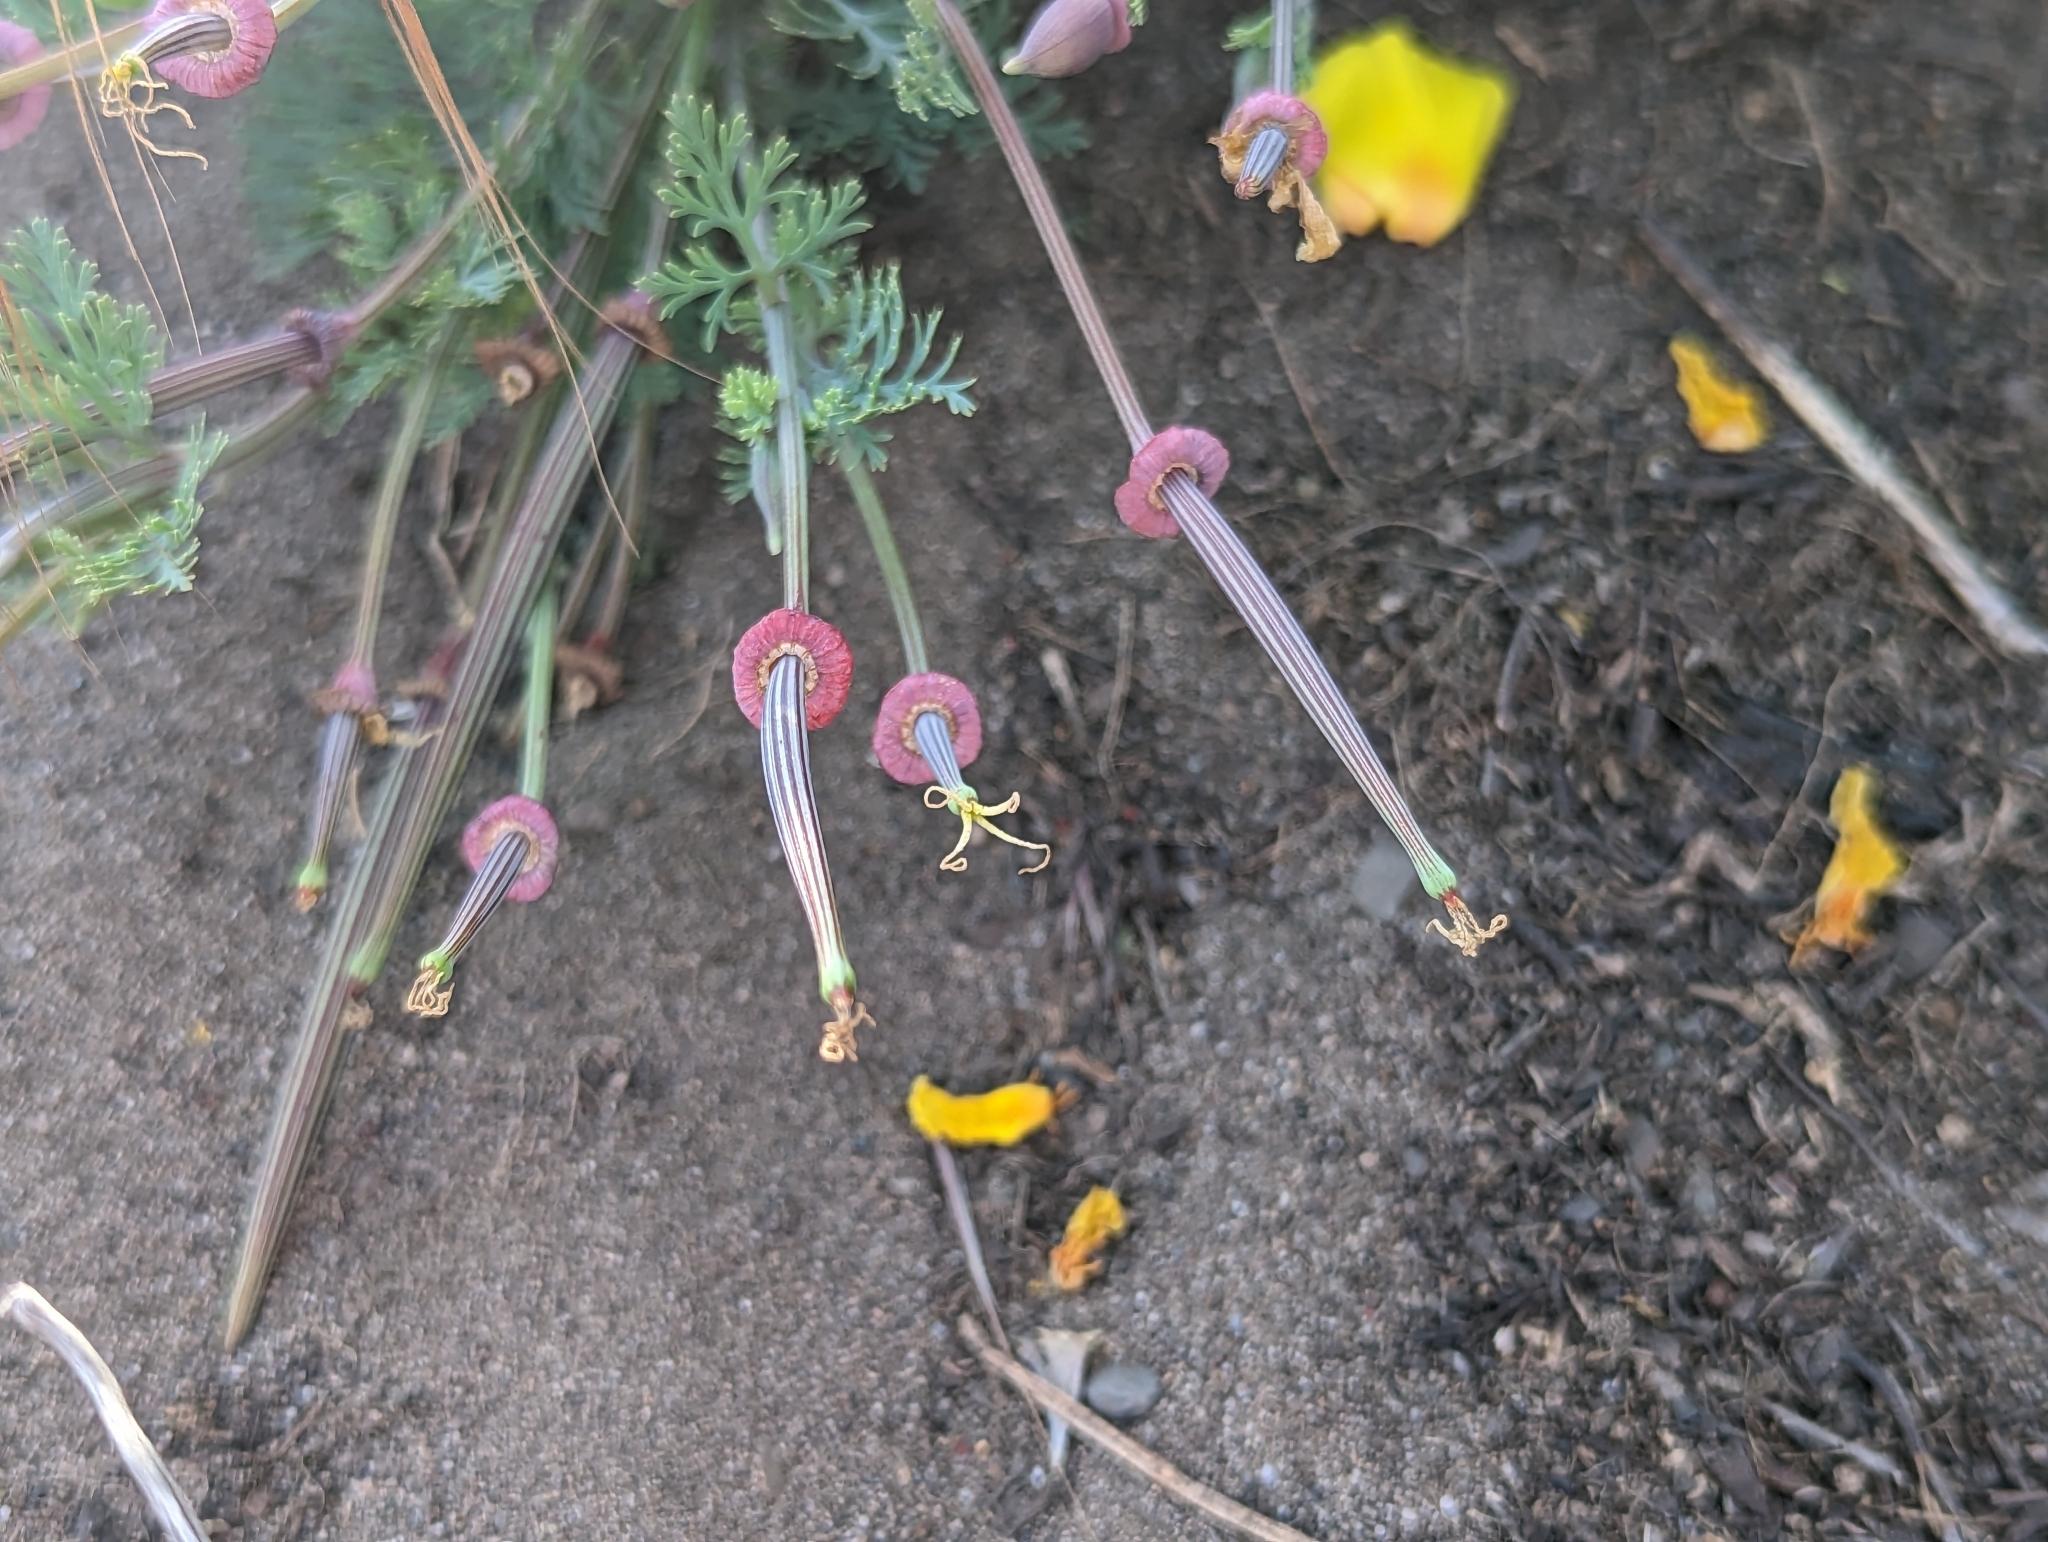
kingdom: Plantae
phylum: Tracheophyta
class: Magnoliopsida
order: Ranunculales
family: Papaveraceae
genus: Eschscholzia
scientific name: Eschscholzia californica
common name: California poppy
